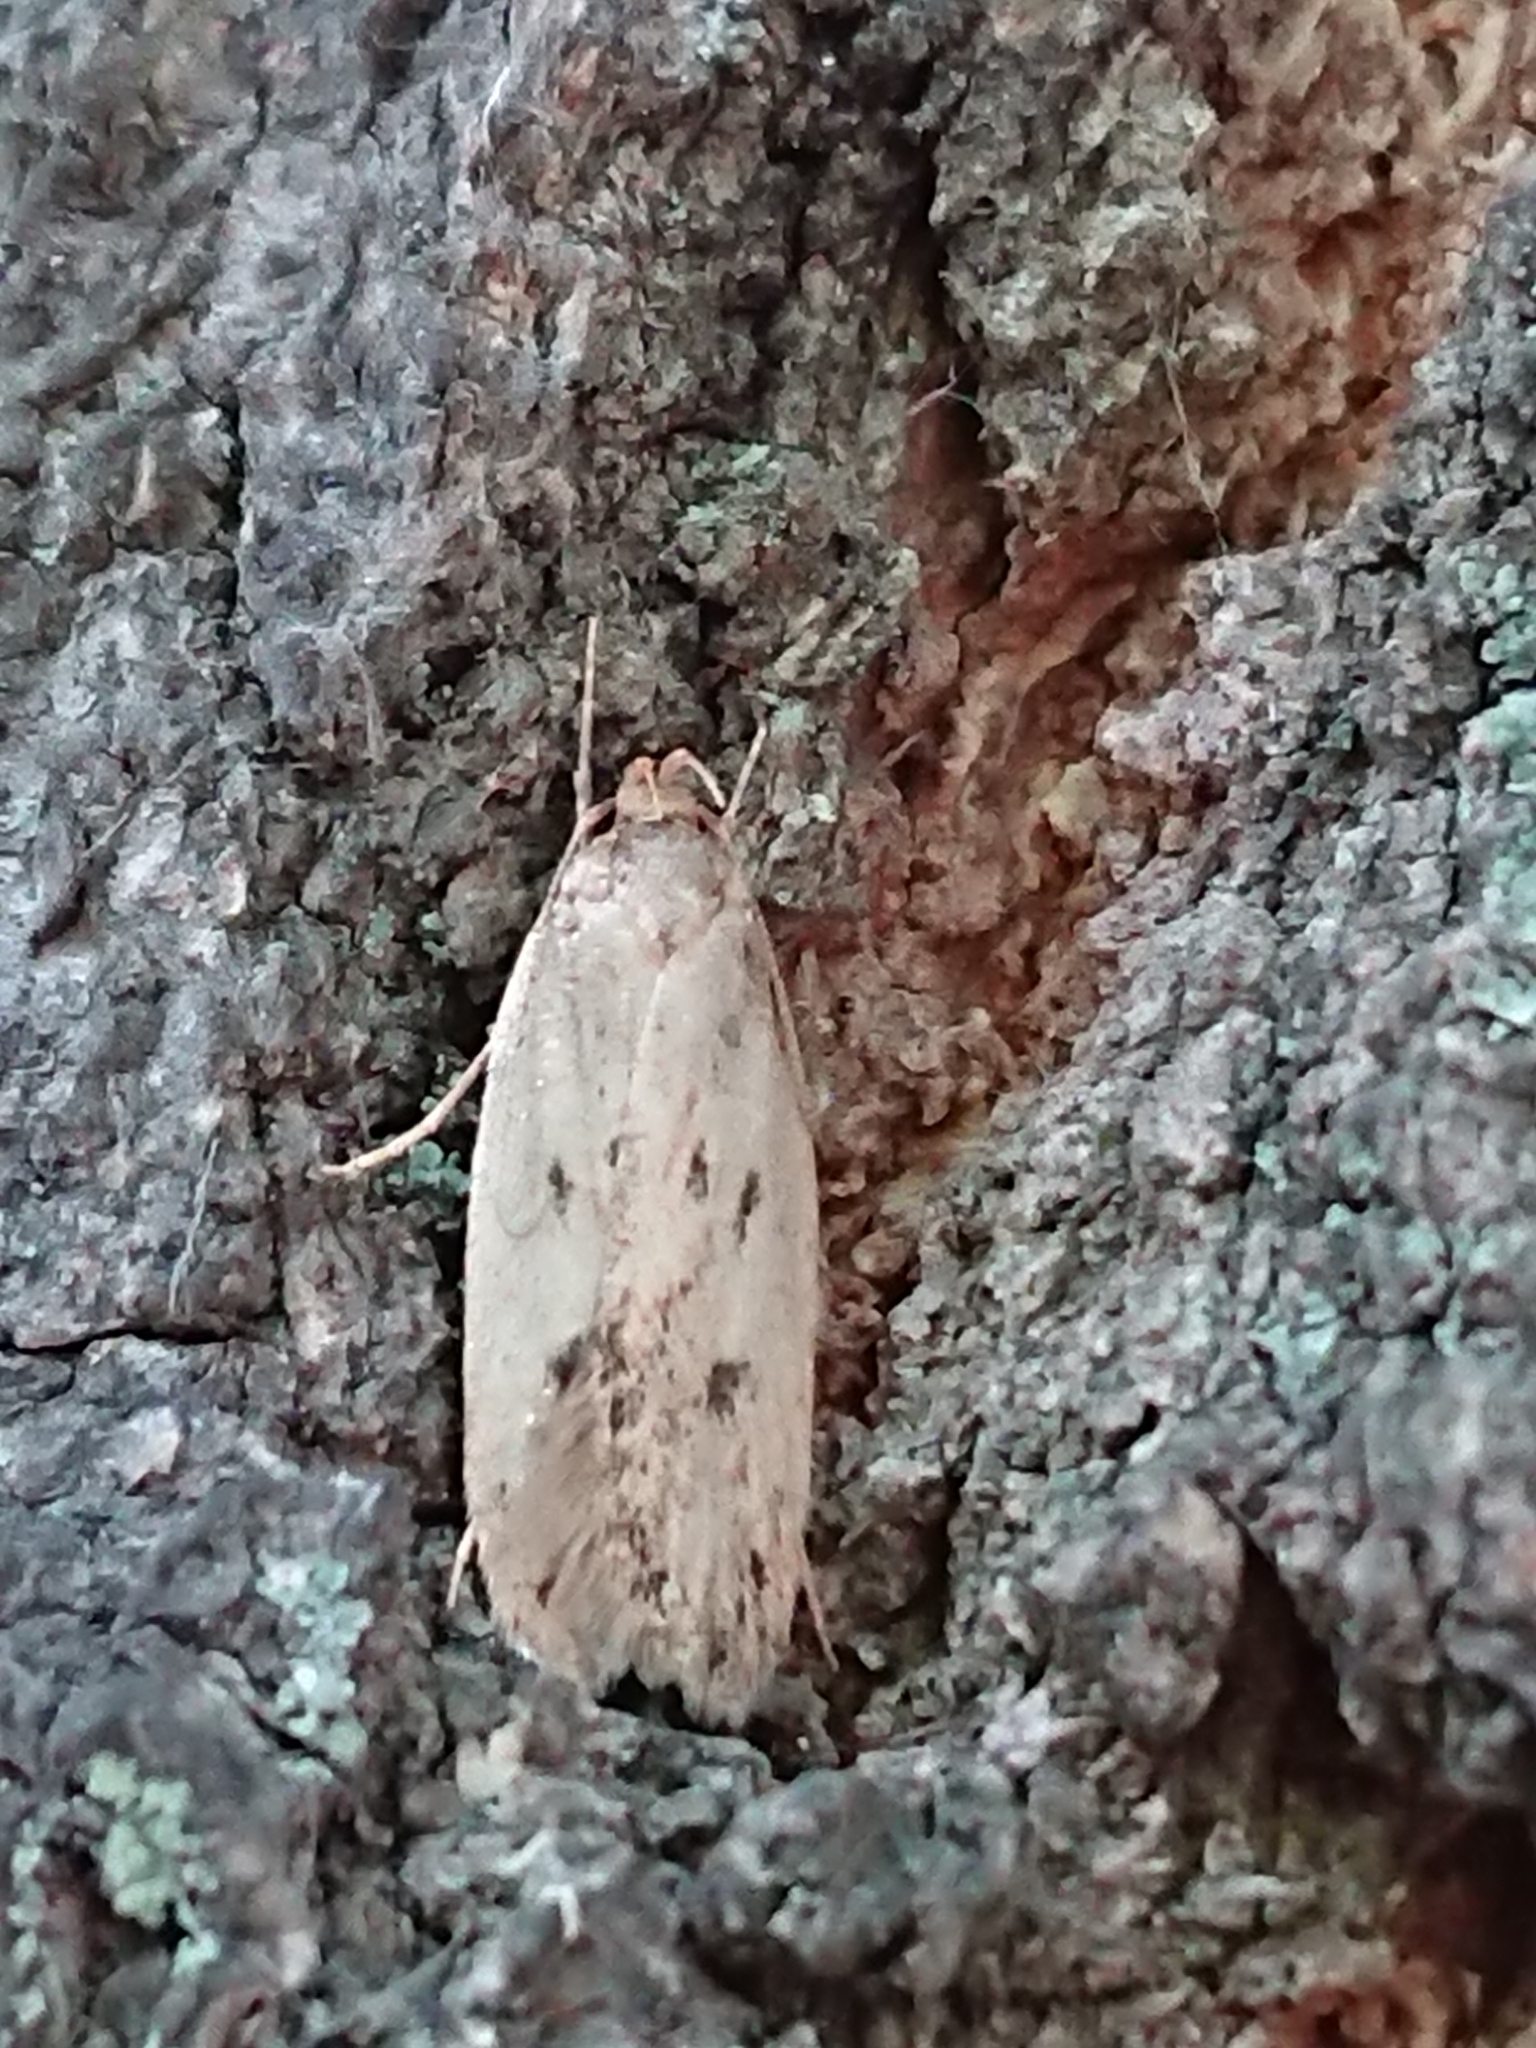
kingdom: Animalia
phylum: Arthropoda
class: Insecta
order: Lepidoptera
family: Oecophoridae
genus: Hofmannophila
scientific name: Hofmannophila pseudospretella
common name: Brown house moth
